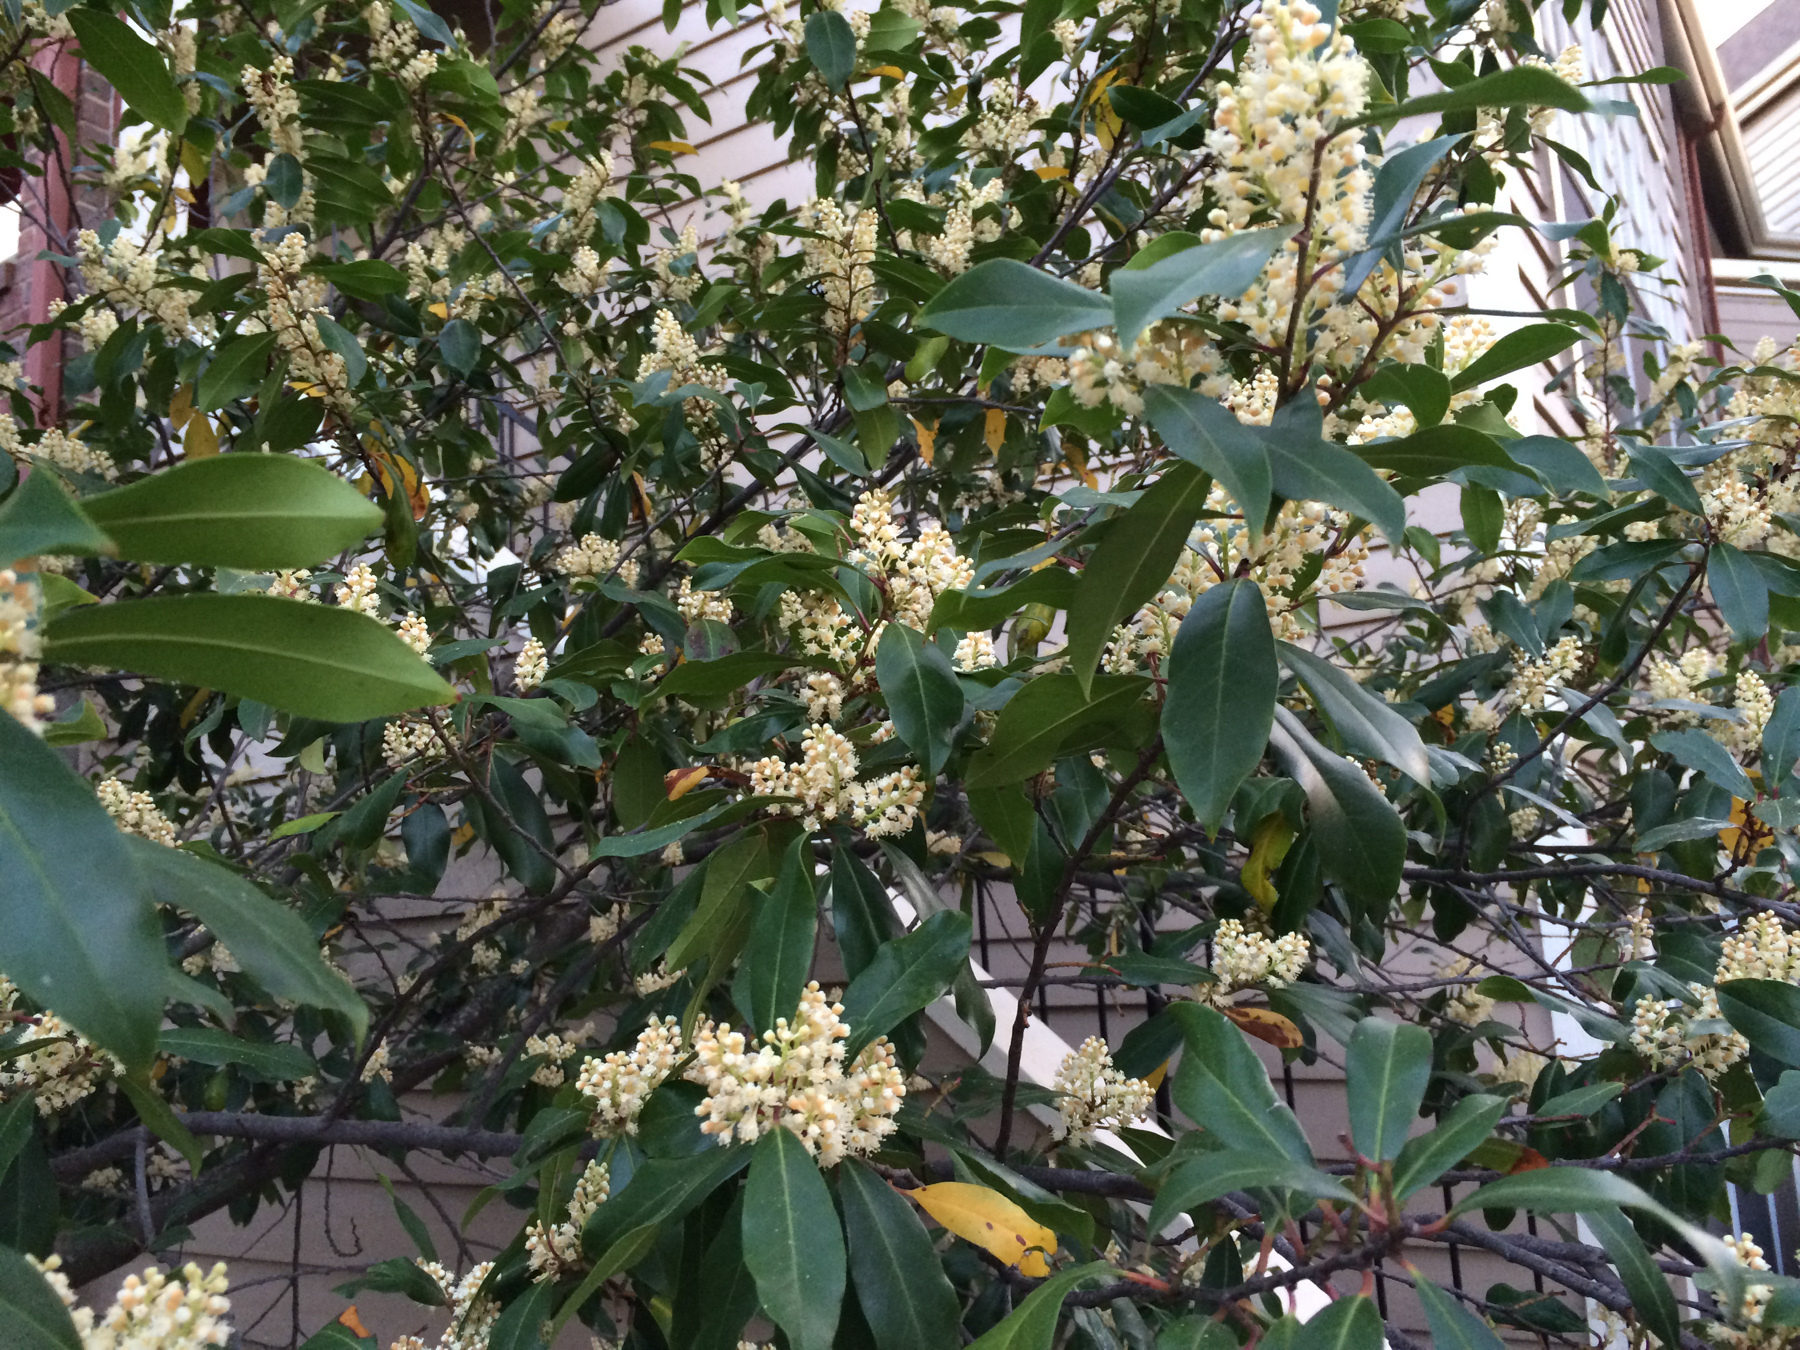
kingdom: Plantae
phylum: Tracheophyta
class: Magnoliopsida
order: Rosales
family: Rosaceae
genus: Prunus
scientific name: Prunus caroliniana
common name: Carolina laurel cherry
